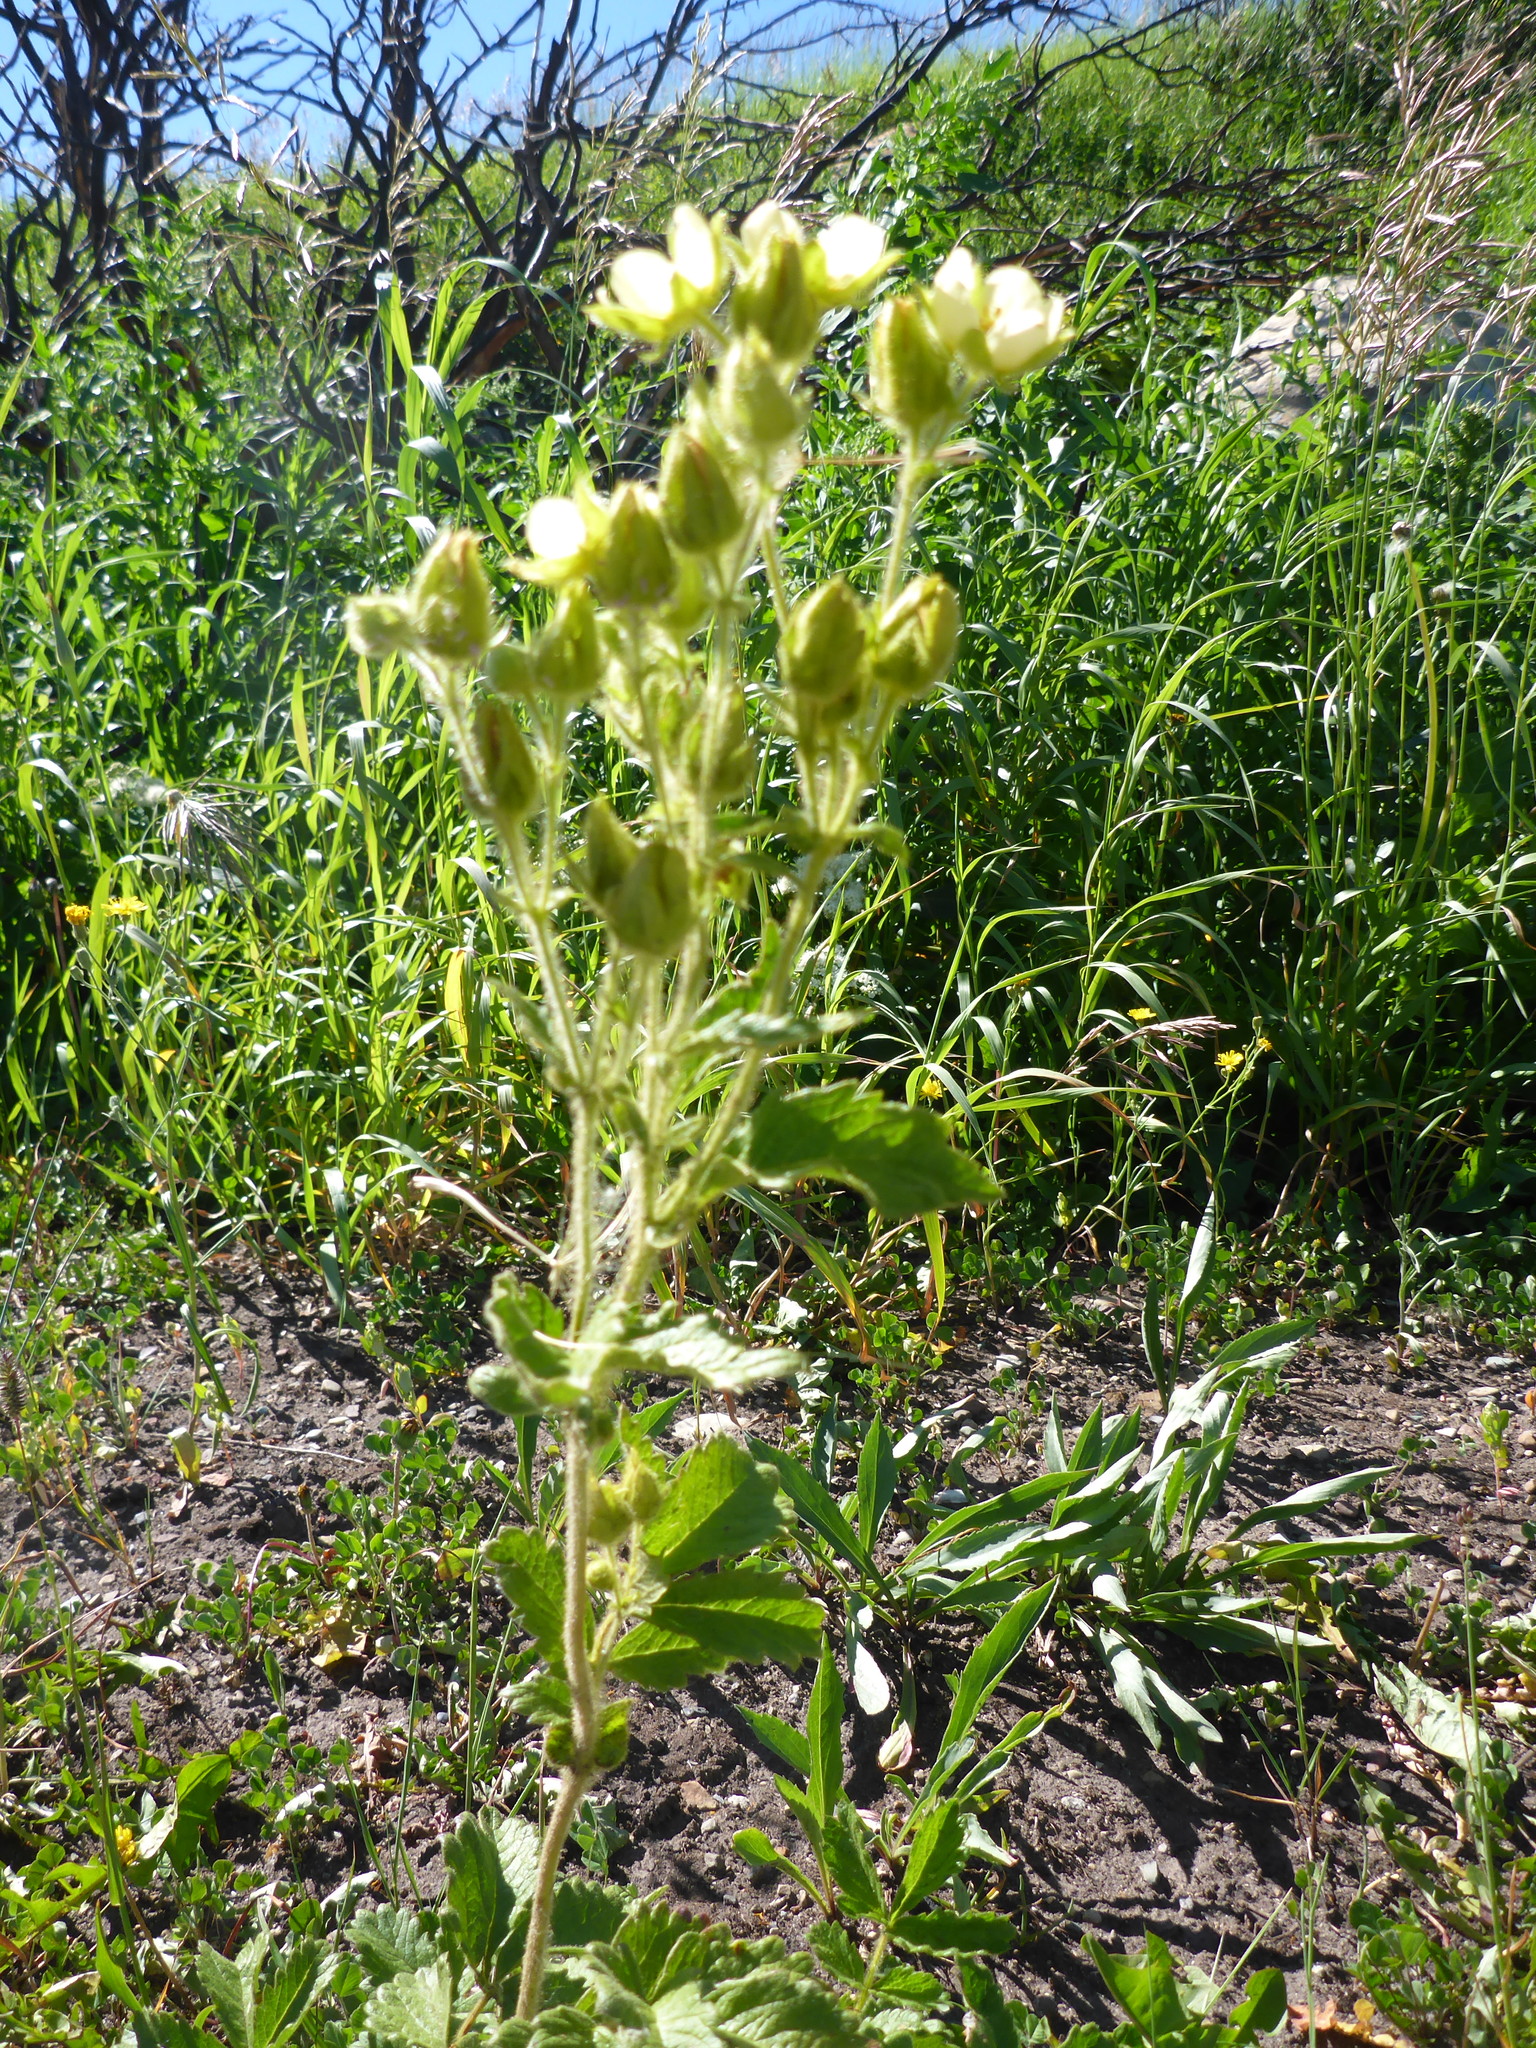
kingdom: Plantae
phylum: Tracheophyta
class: Magnoliopsida
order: Rosales
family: Rosaceae
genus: Drymocallis
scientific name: Drymocallis arguta
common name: Tall cinquefoil
